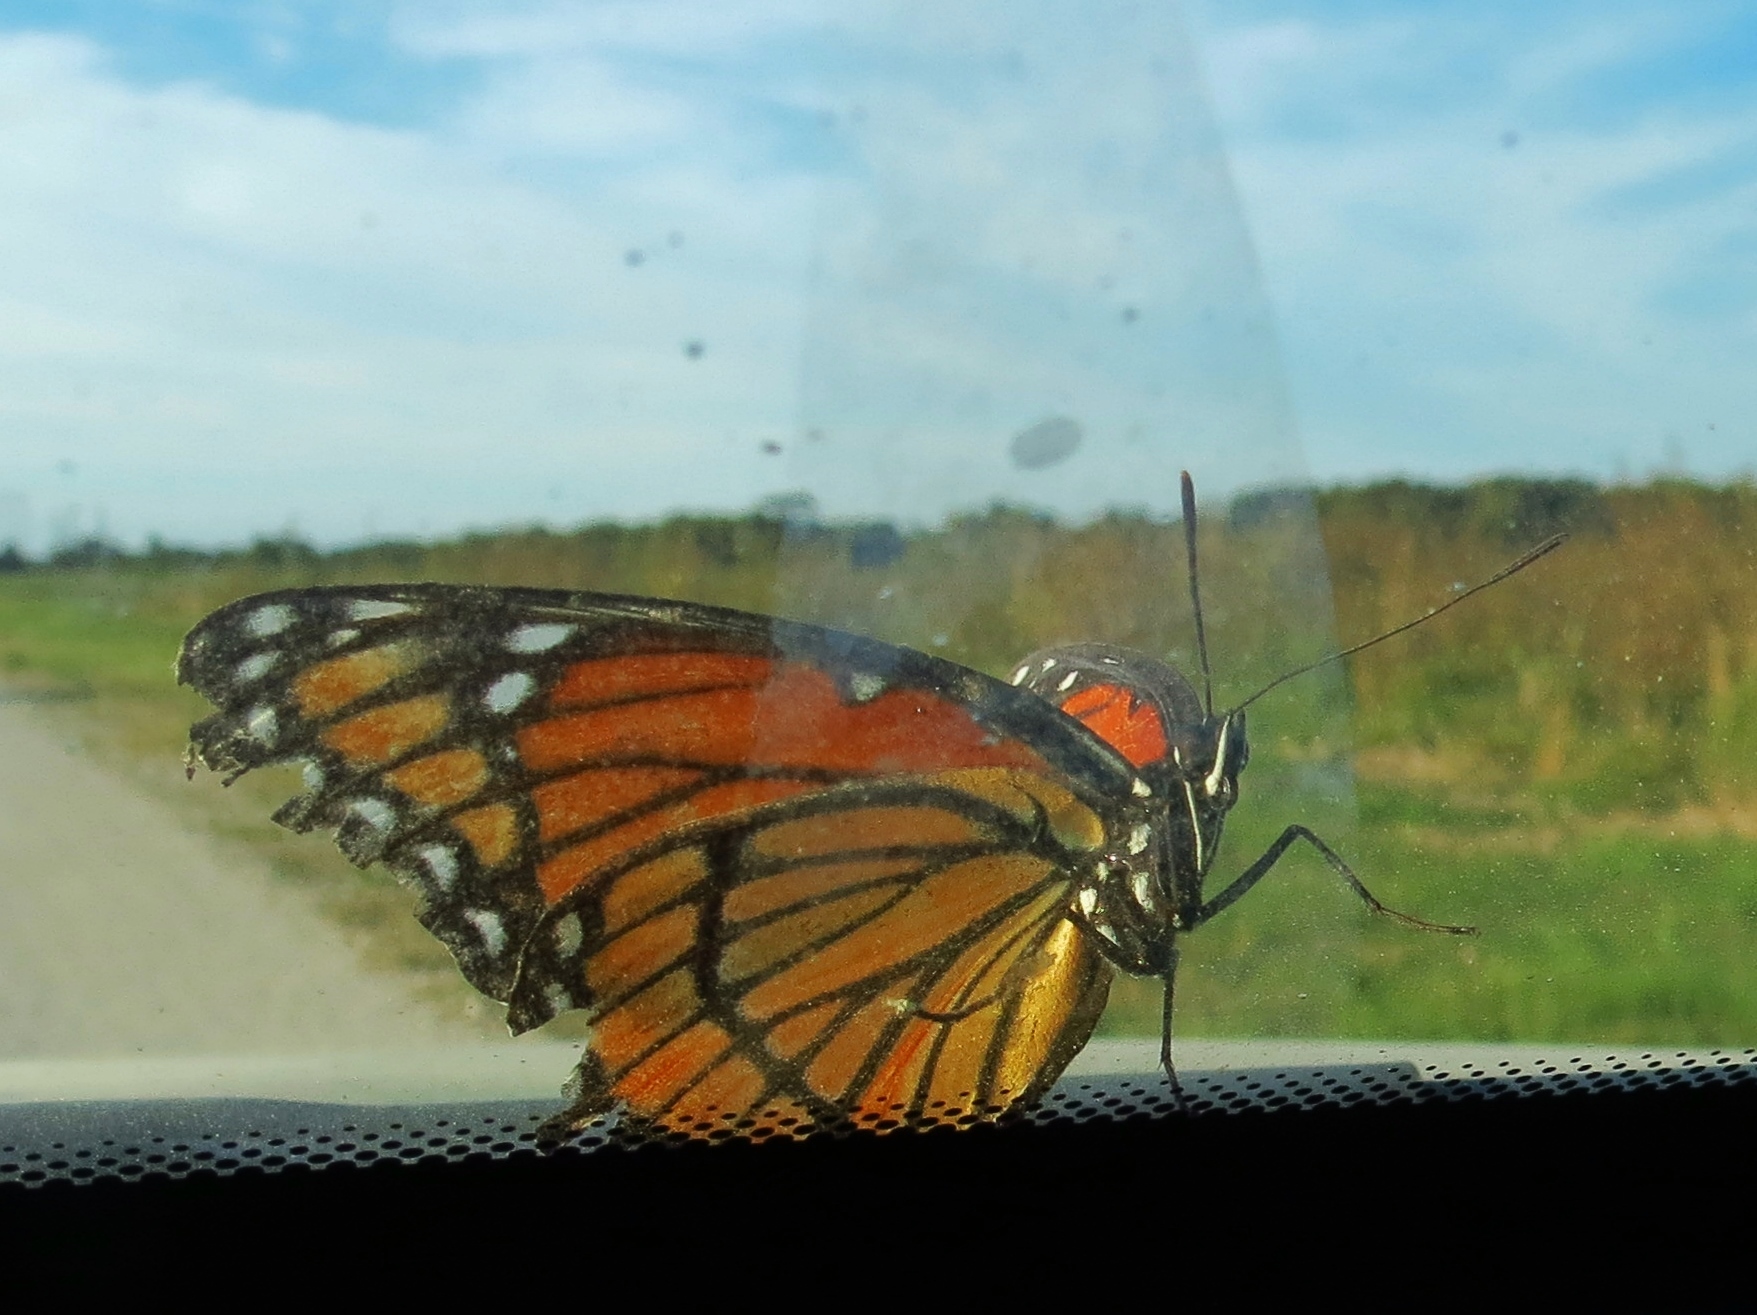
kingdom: Animalia
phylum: Arthropoda
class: Insecta
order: Lepidoptera
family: Nymphalidae
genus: Limenitis
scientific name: Limenitis archippus
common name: Viceroy
